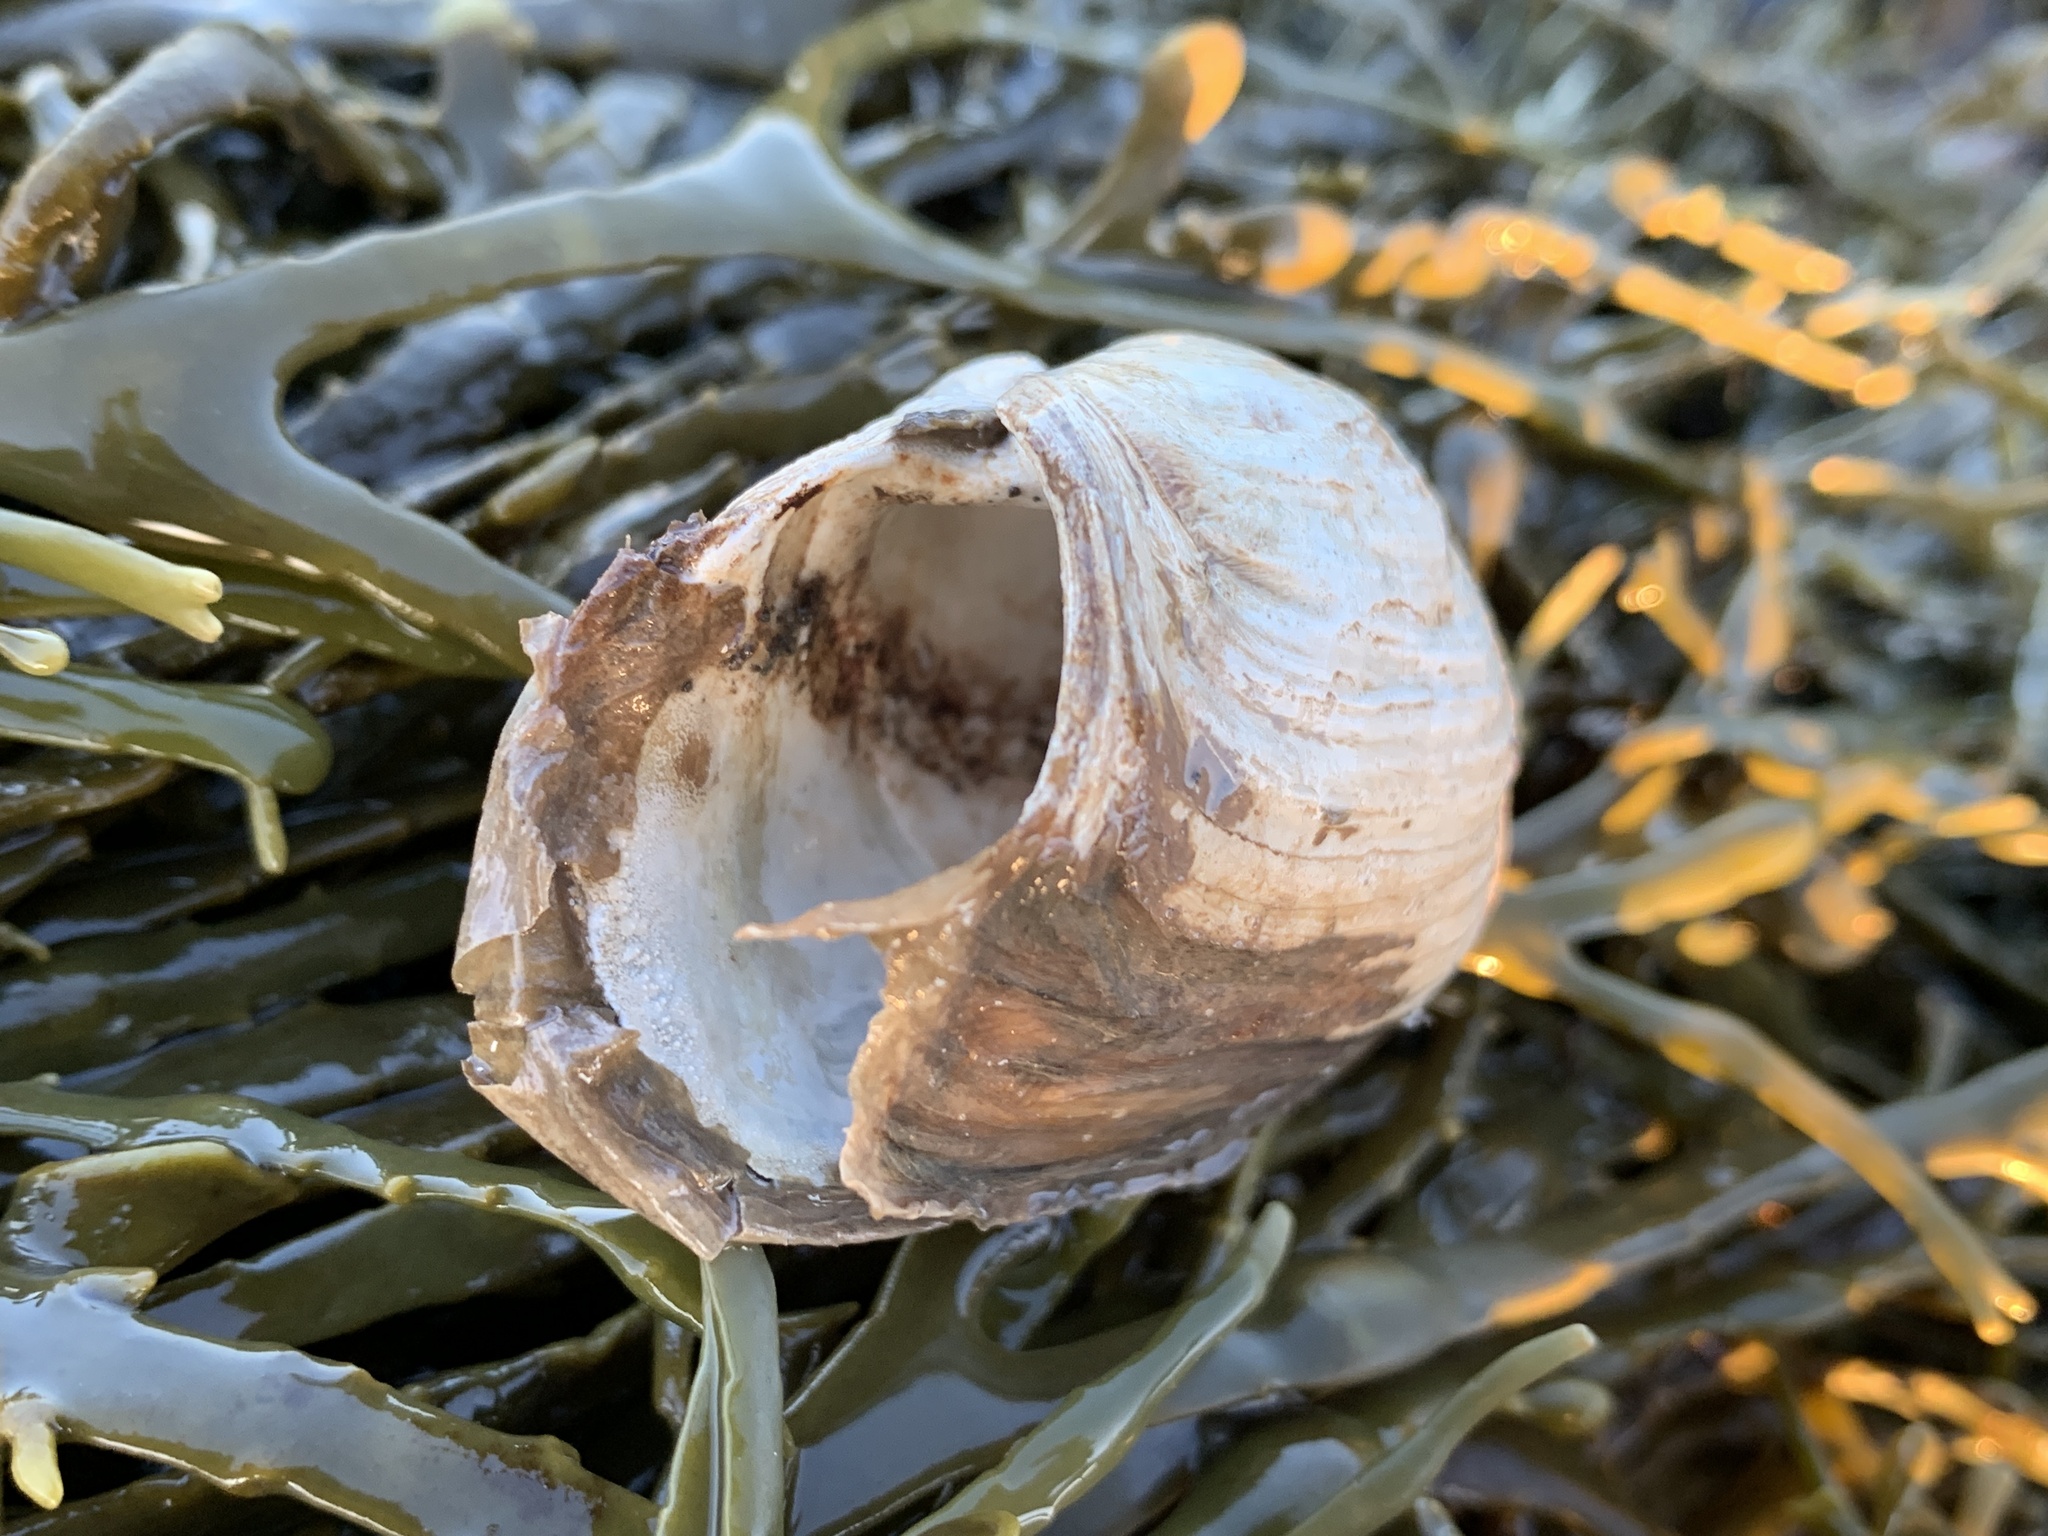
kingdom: Animalia
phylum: Mollusca
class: Bivalvia
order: Myida
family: Myidae
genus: Mya
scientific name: Mya truncata
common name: Blunt gaper
